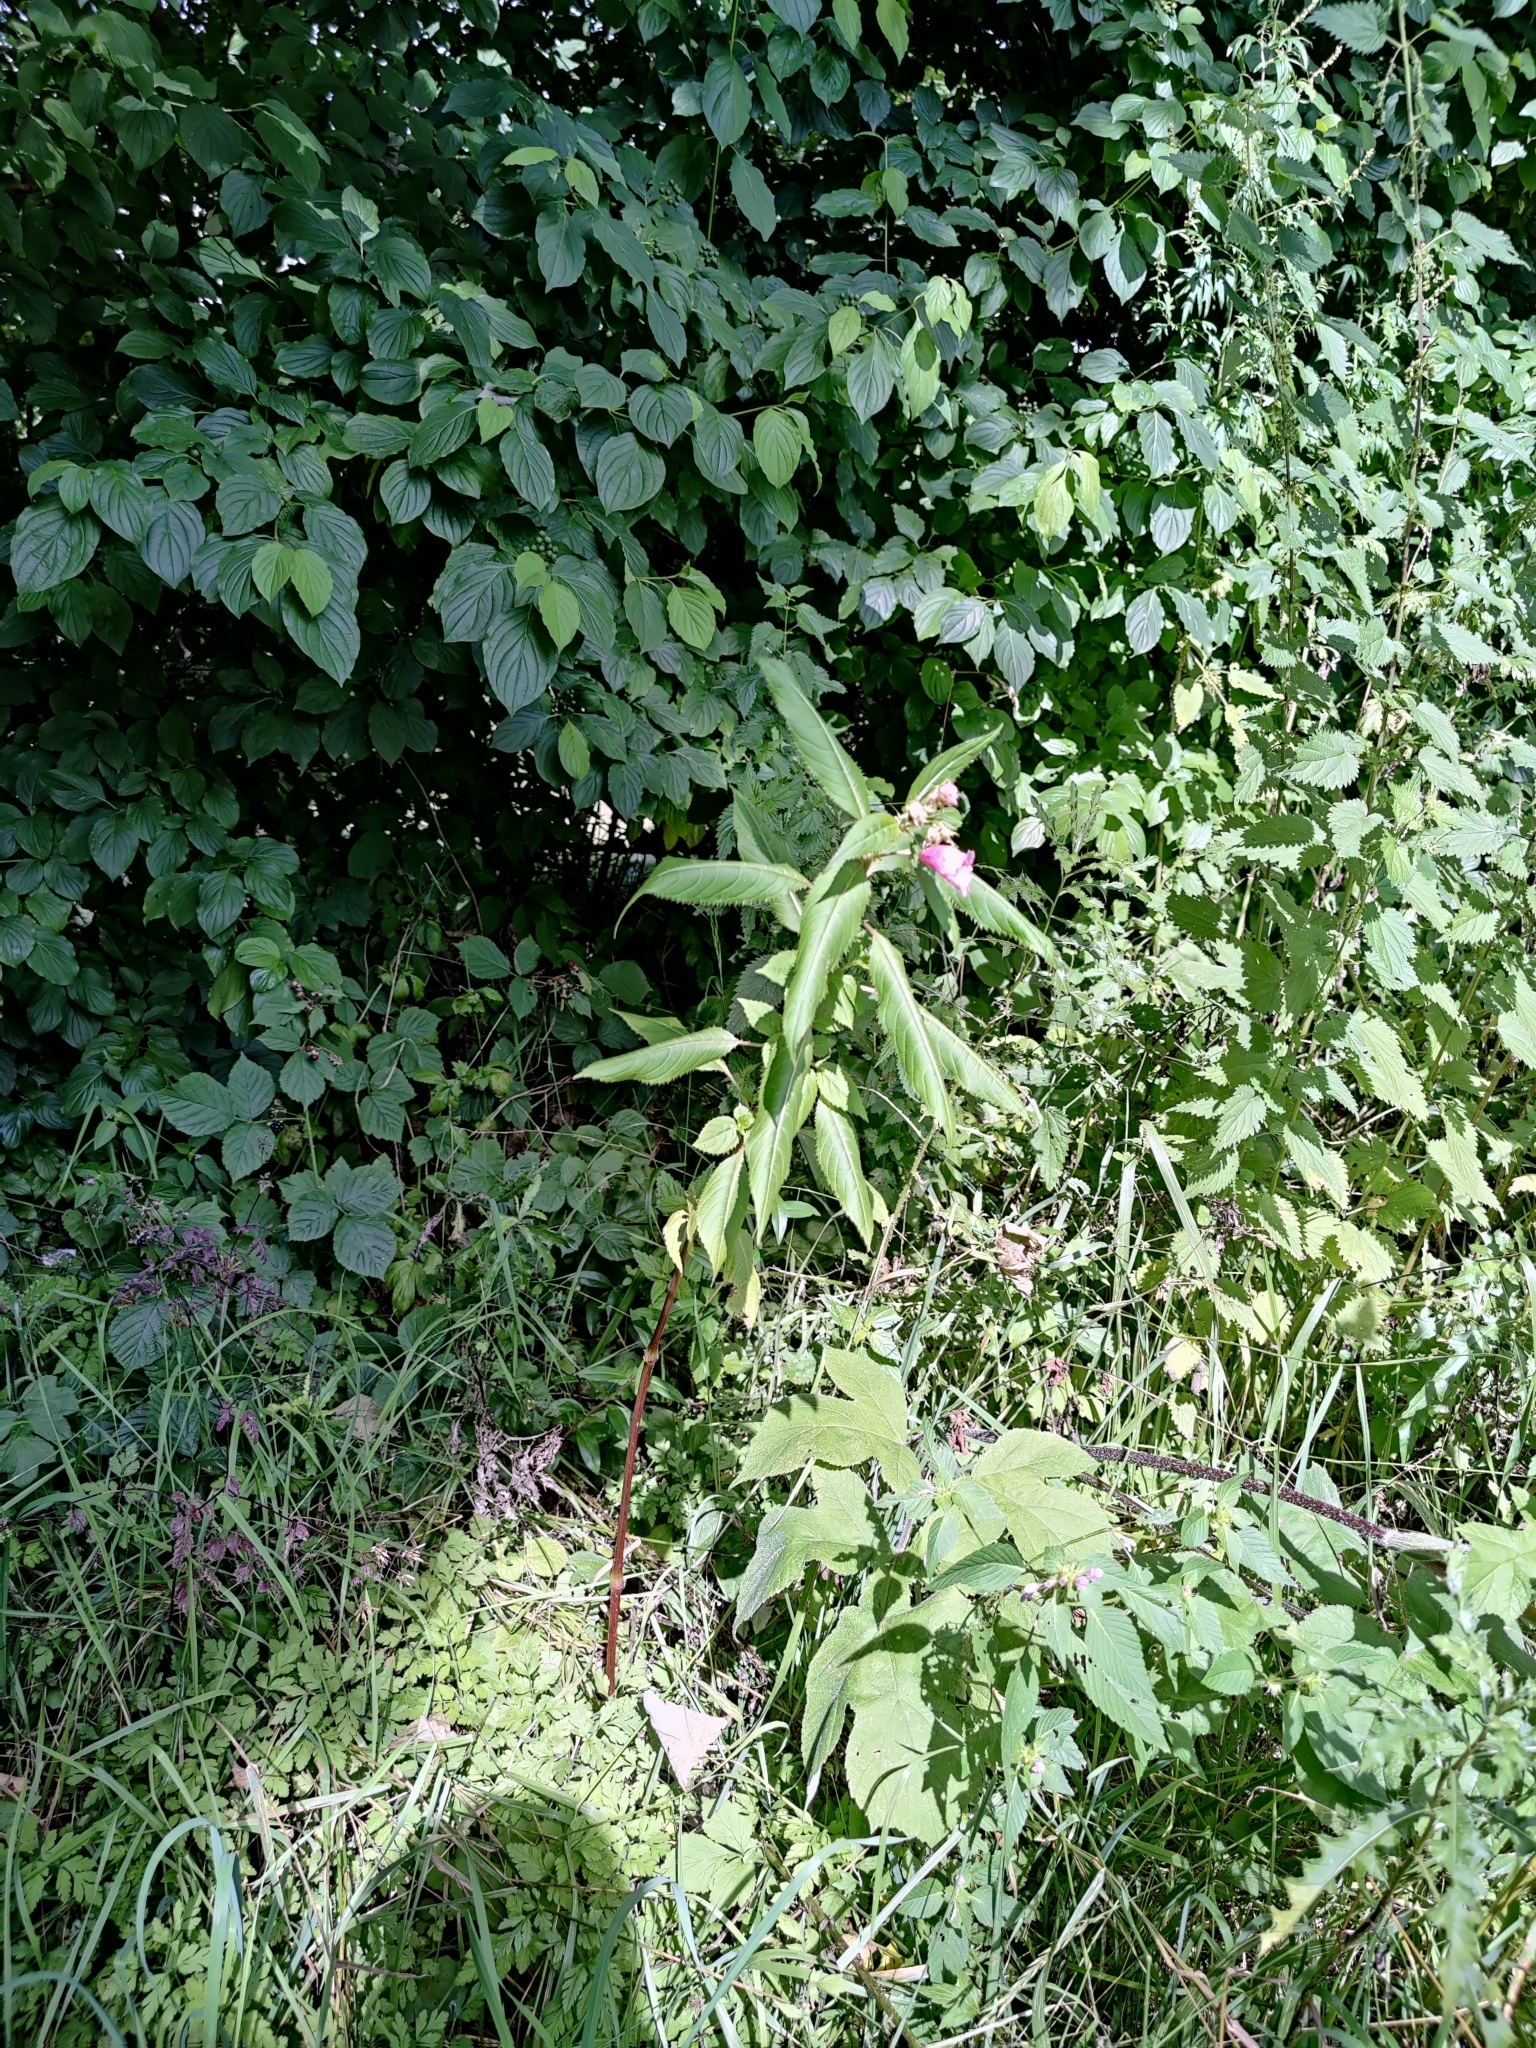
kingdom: Plantae
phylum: Tracheophyta
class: Magnoliopsida
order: Ericales
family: Balsaminaceae
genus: Impatiens
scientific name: Impatiens glandulifera
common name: Himalayan balsam
